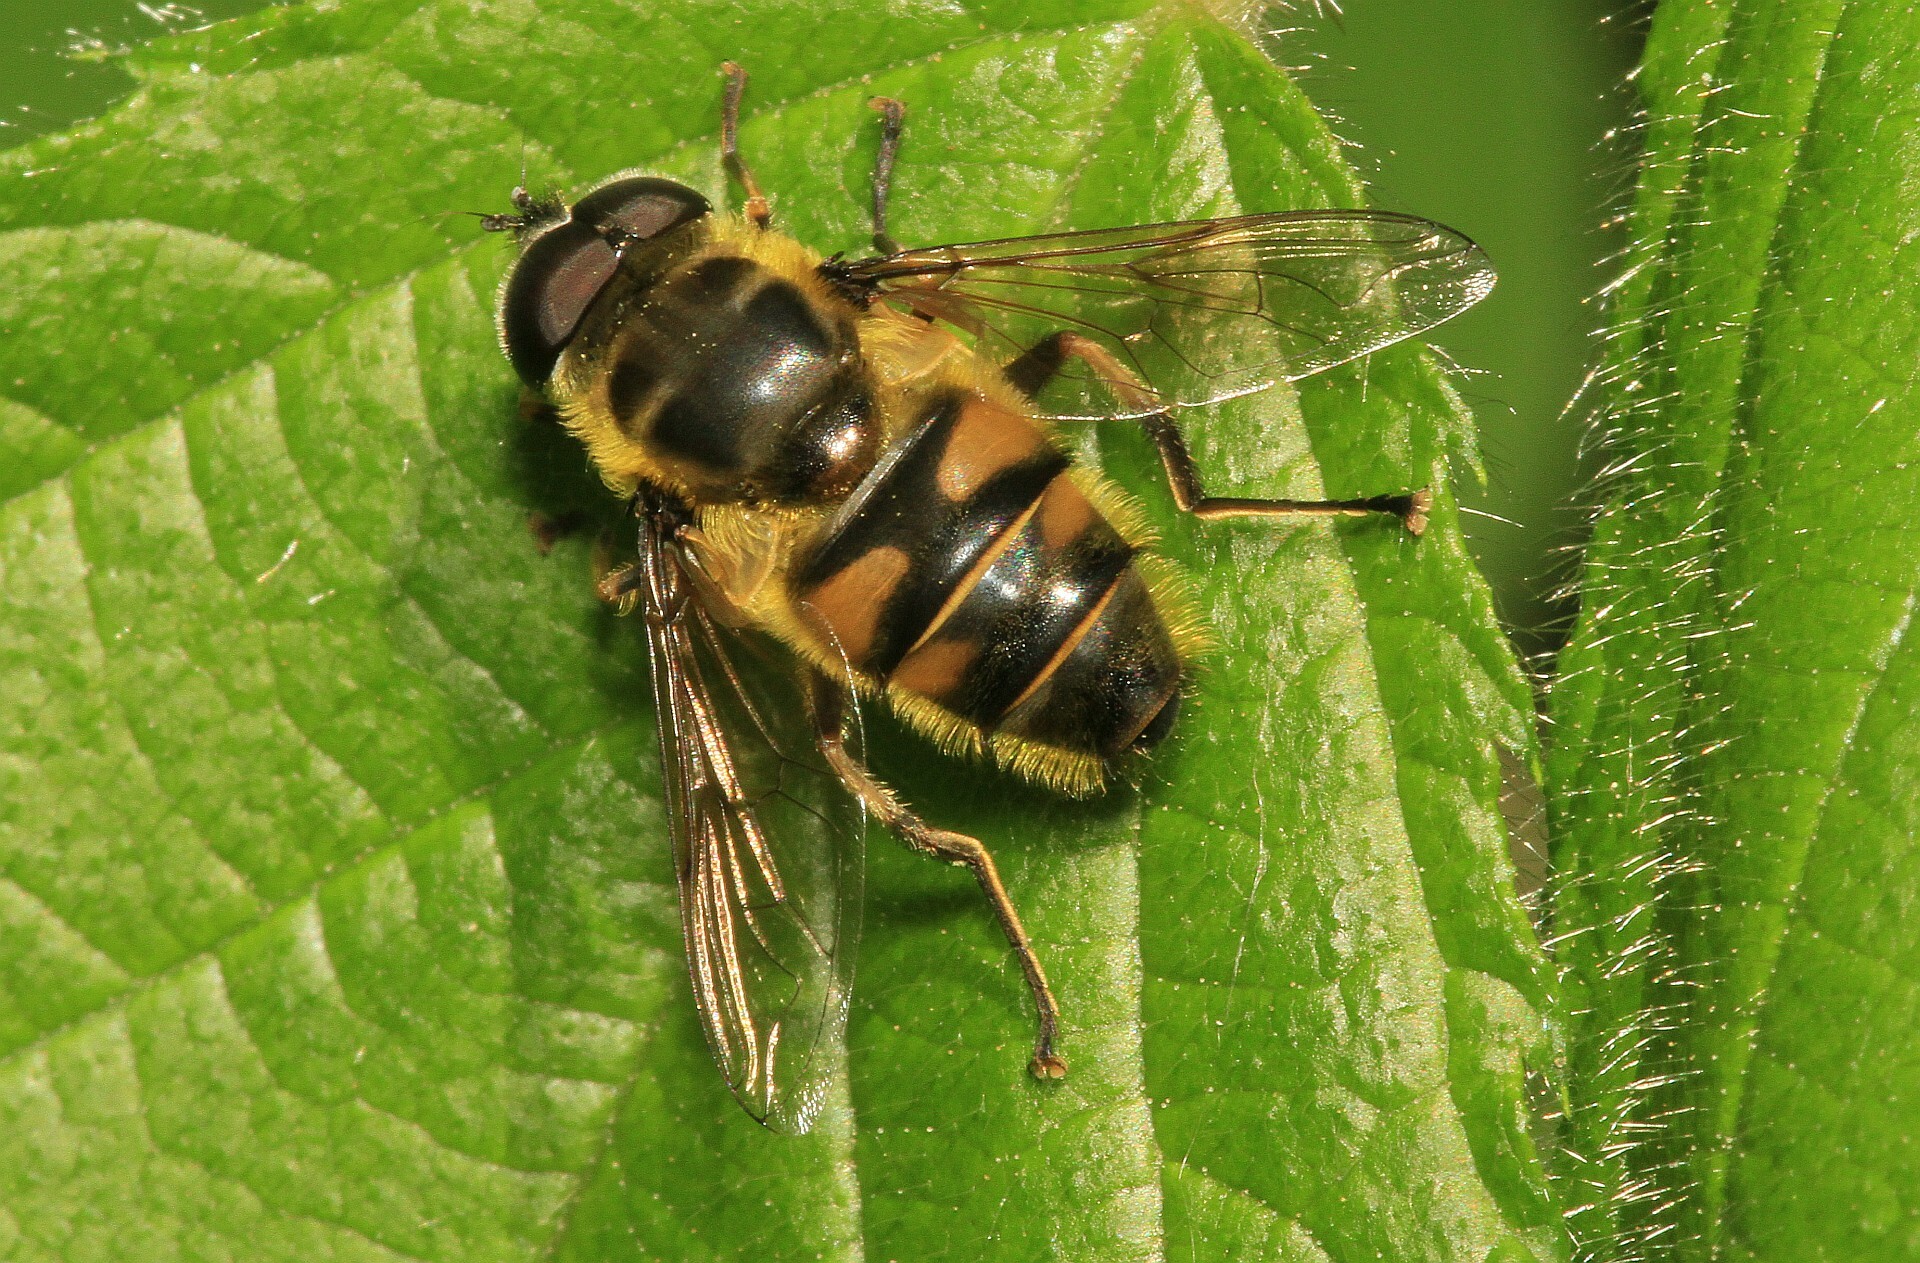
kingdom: Animalia
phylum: Arthropoda
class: Insecta
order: Diptera
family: Syrphidae
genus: Myathropa
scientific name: Myathropa florea
